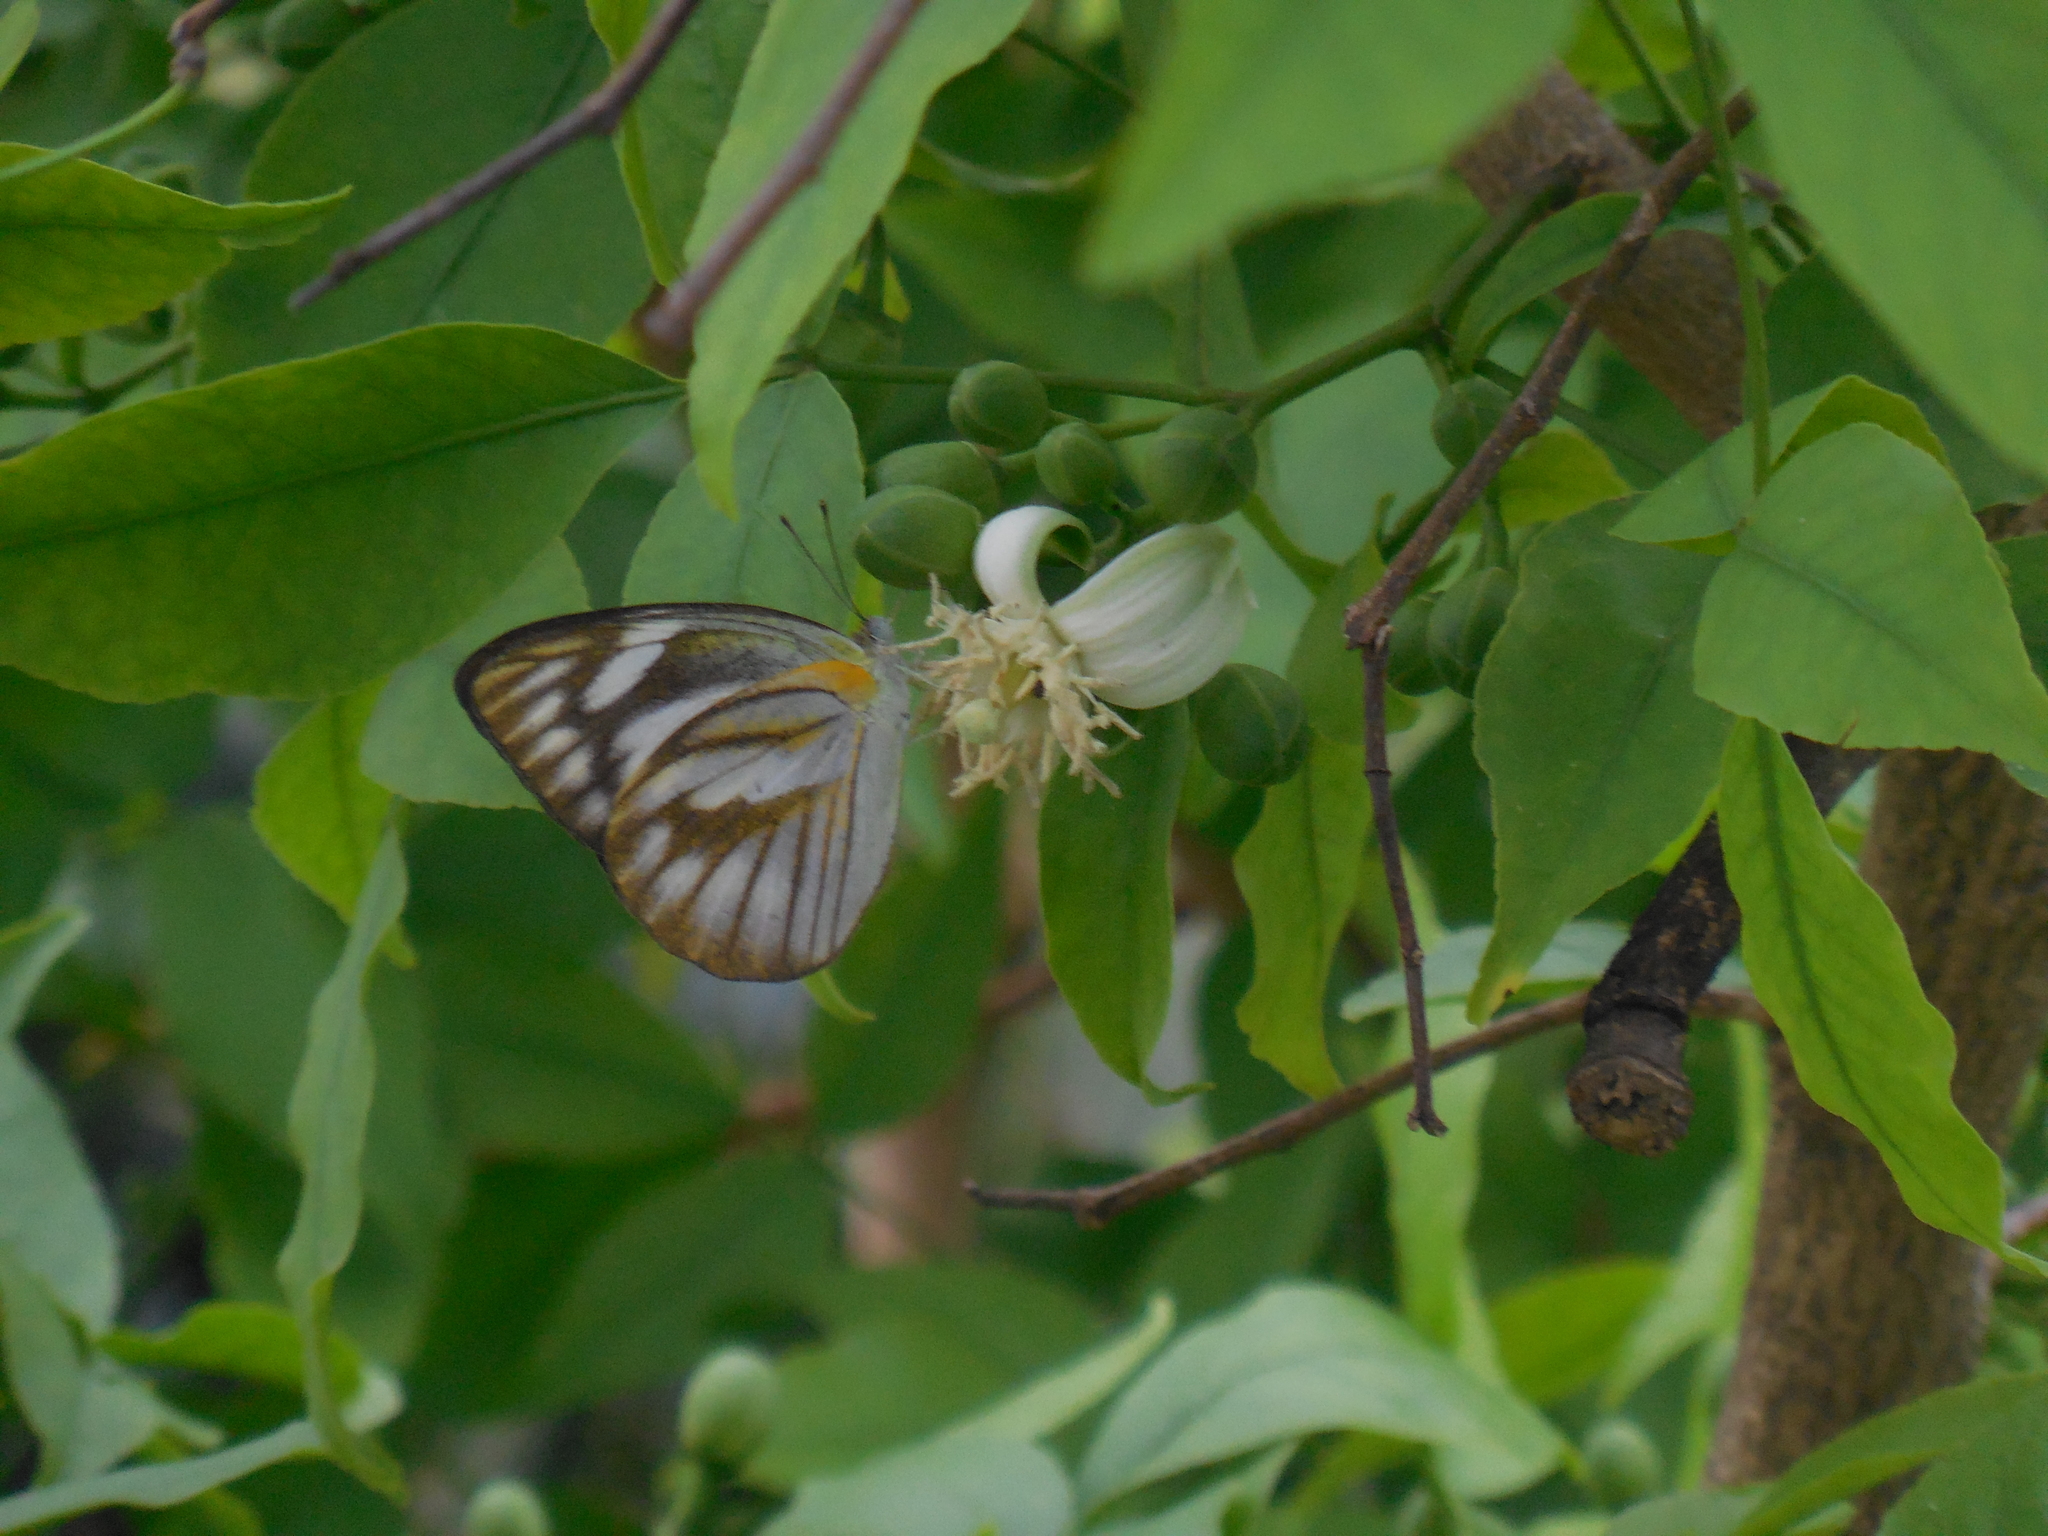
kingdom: Animalia
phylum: Arthropoda
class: Insecta
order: Lepidoptera
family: Pieridae
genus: Appias
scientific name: Appias libythea
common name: Striped albatross
